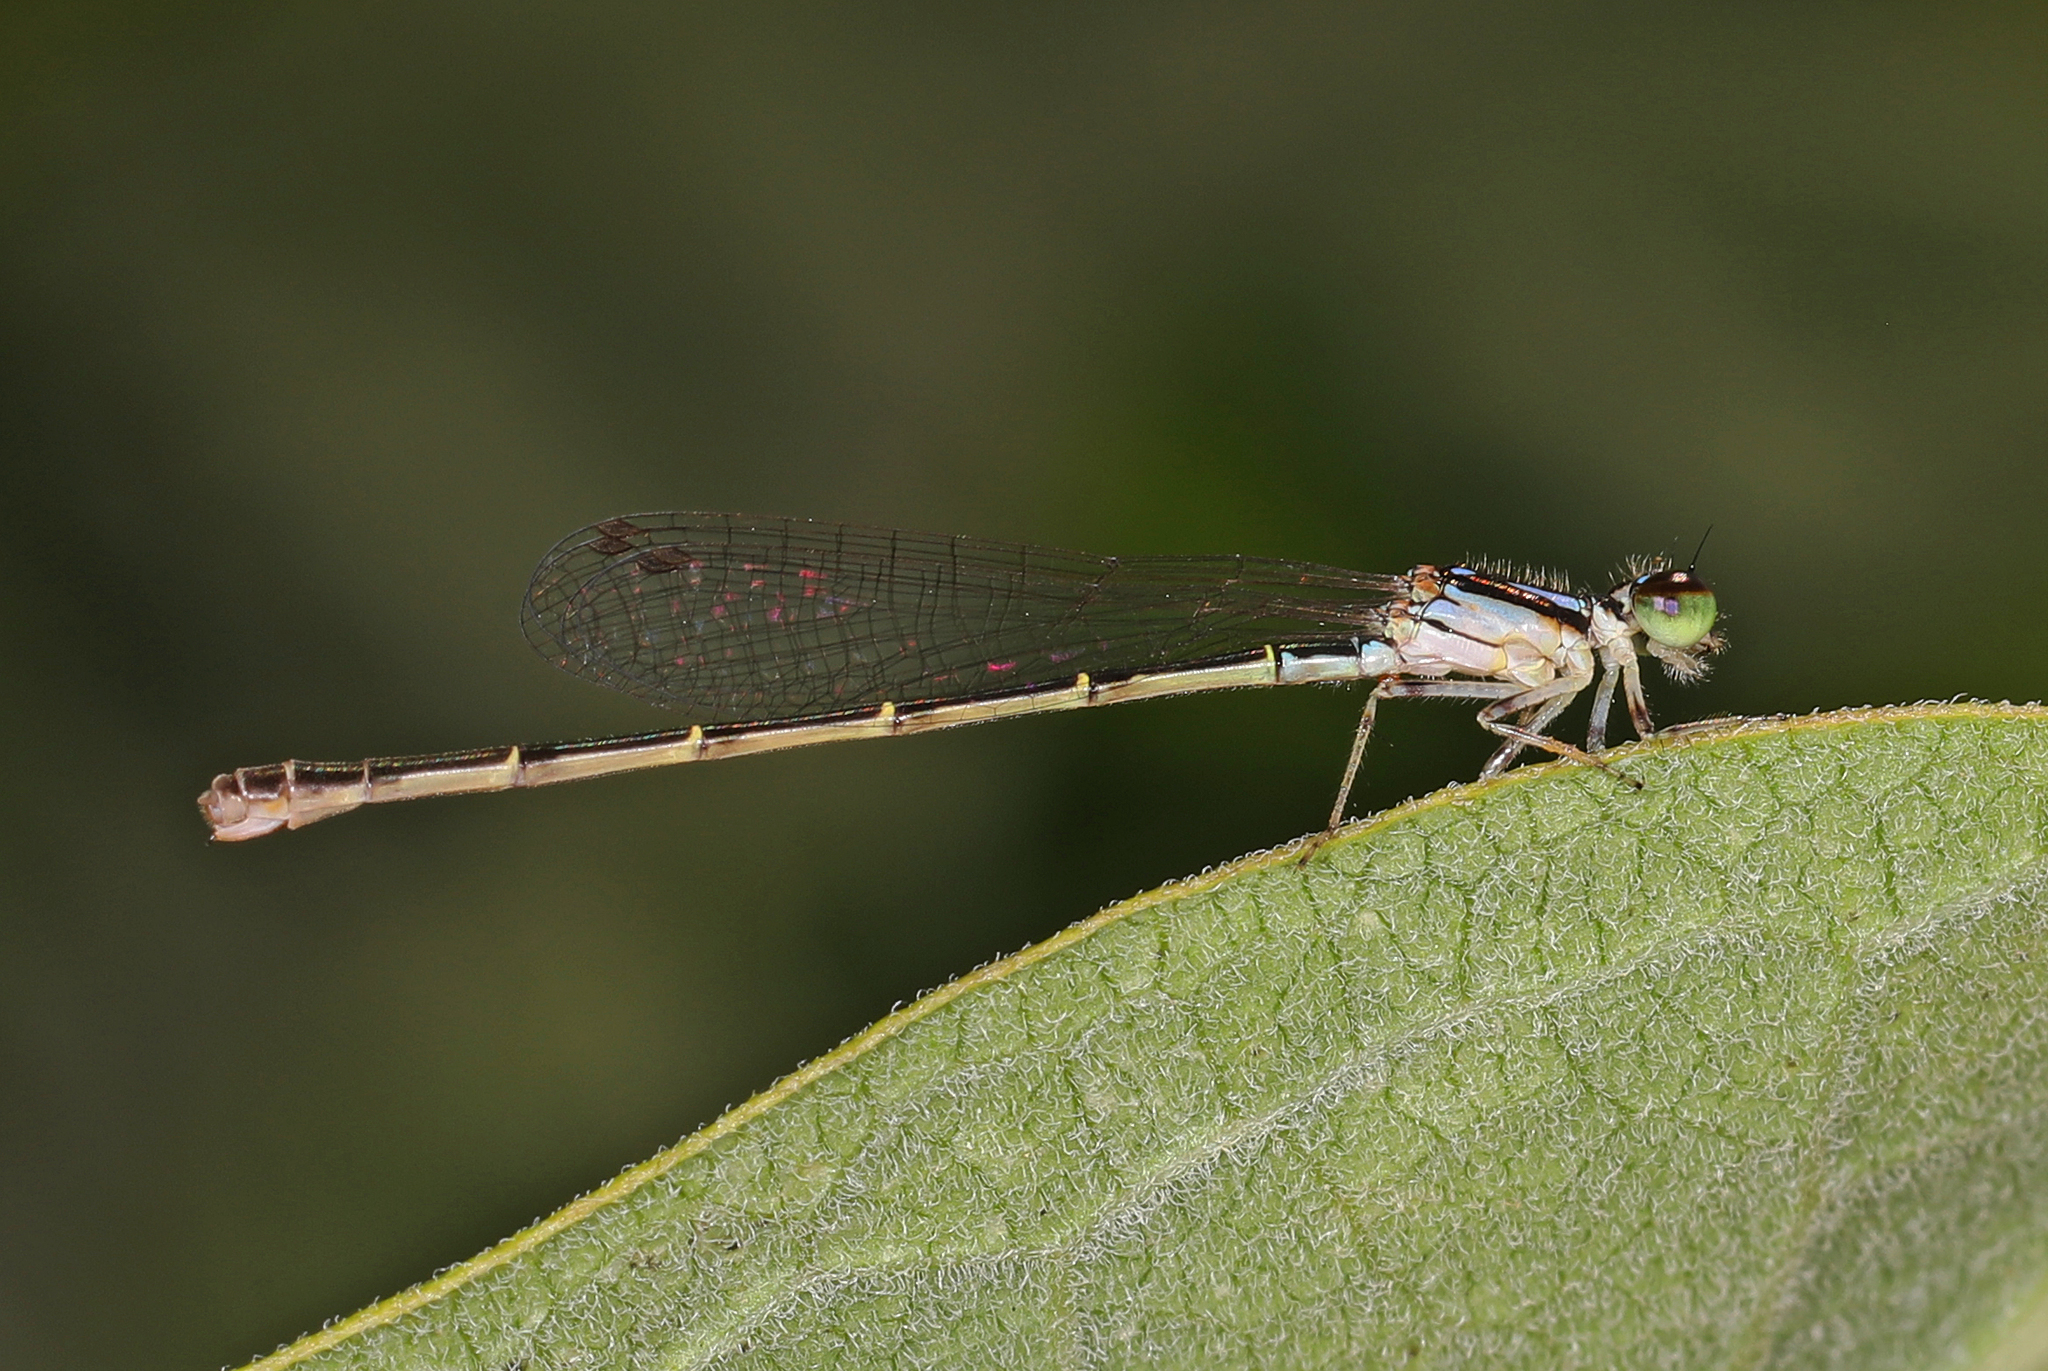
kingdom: Animalia
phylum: Arthropoda
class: Insecta
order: Odonata
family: Coenagrionidae
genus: Ischnura
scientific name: Ischnura posita
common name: Fragile forktail
